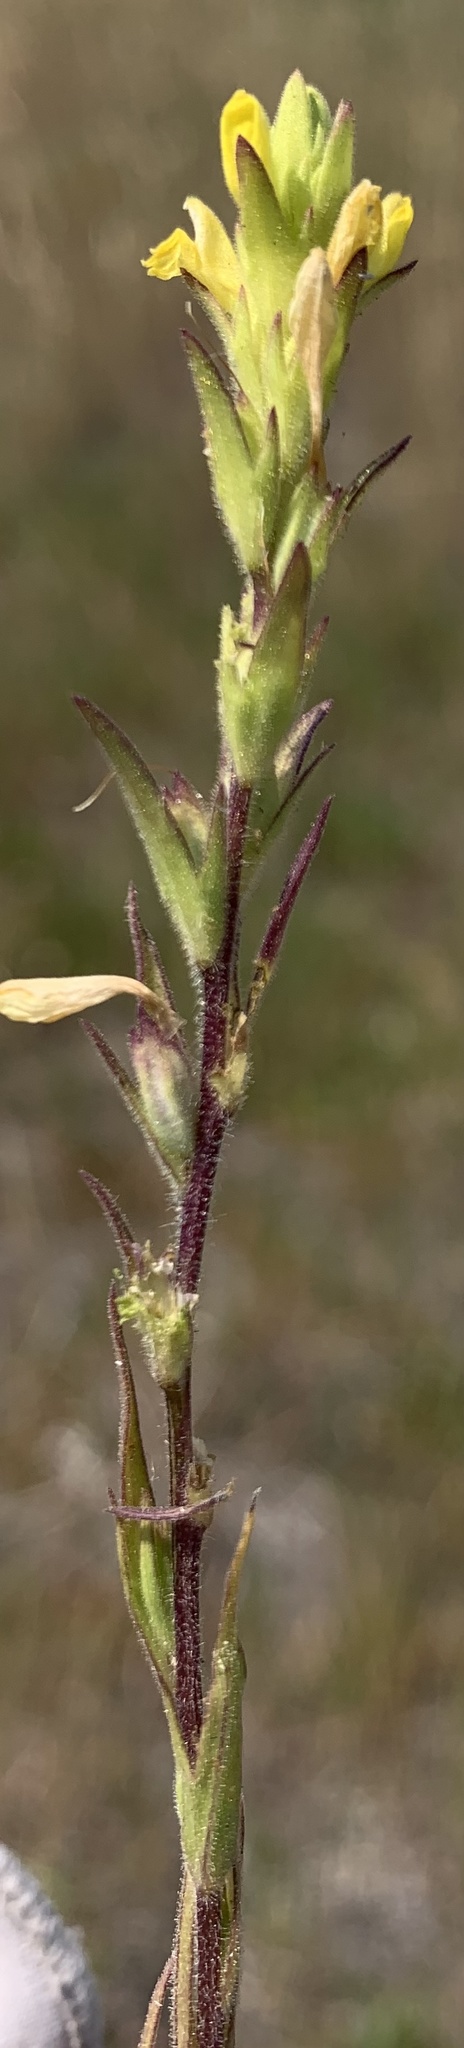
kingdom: Plantae
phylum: Tracheophyta
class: Magnoliopsida
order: Lamiales
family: Orobanchaceae
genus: Orthocarpus
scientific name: Orthocarpus luteus
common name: Golden-tongue owl's-clover
